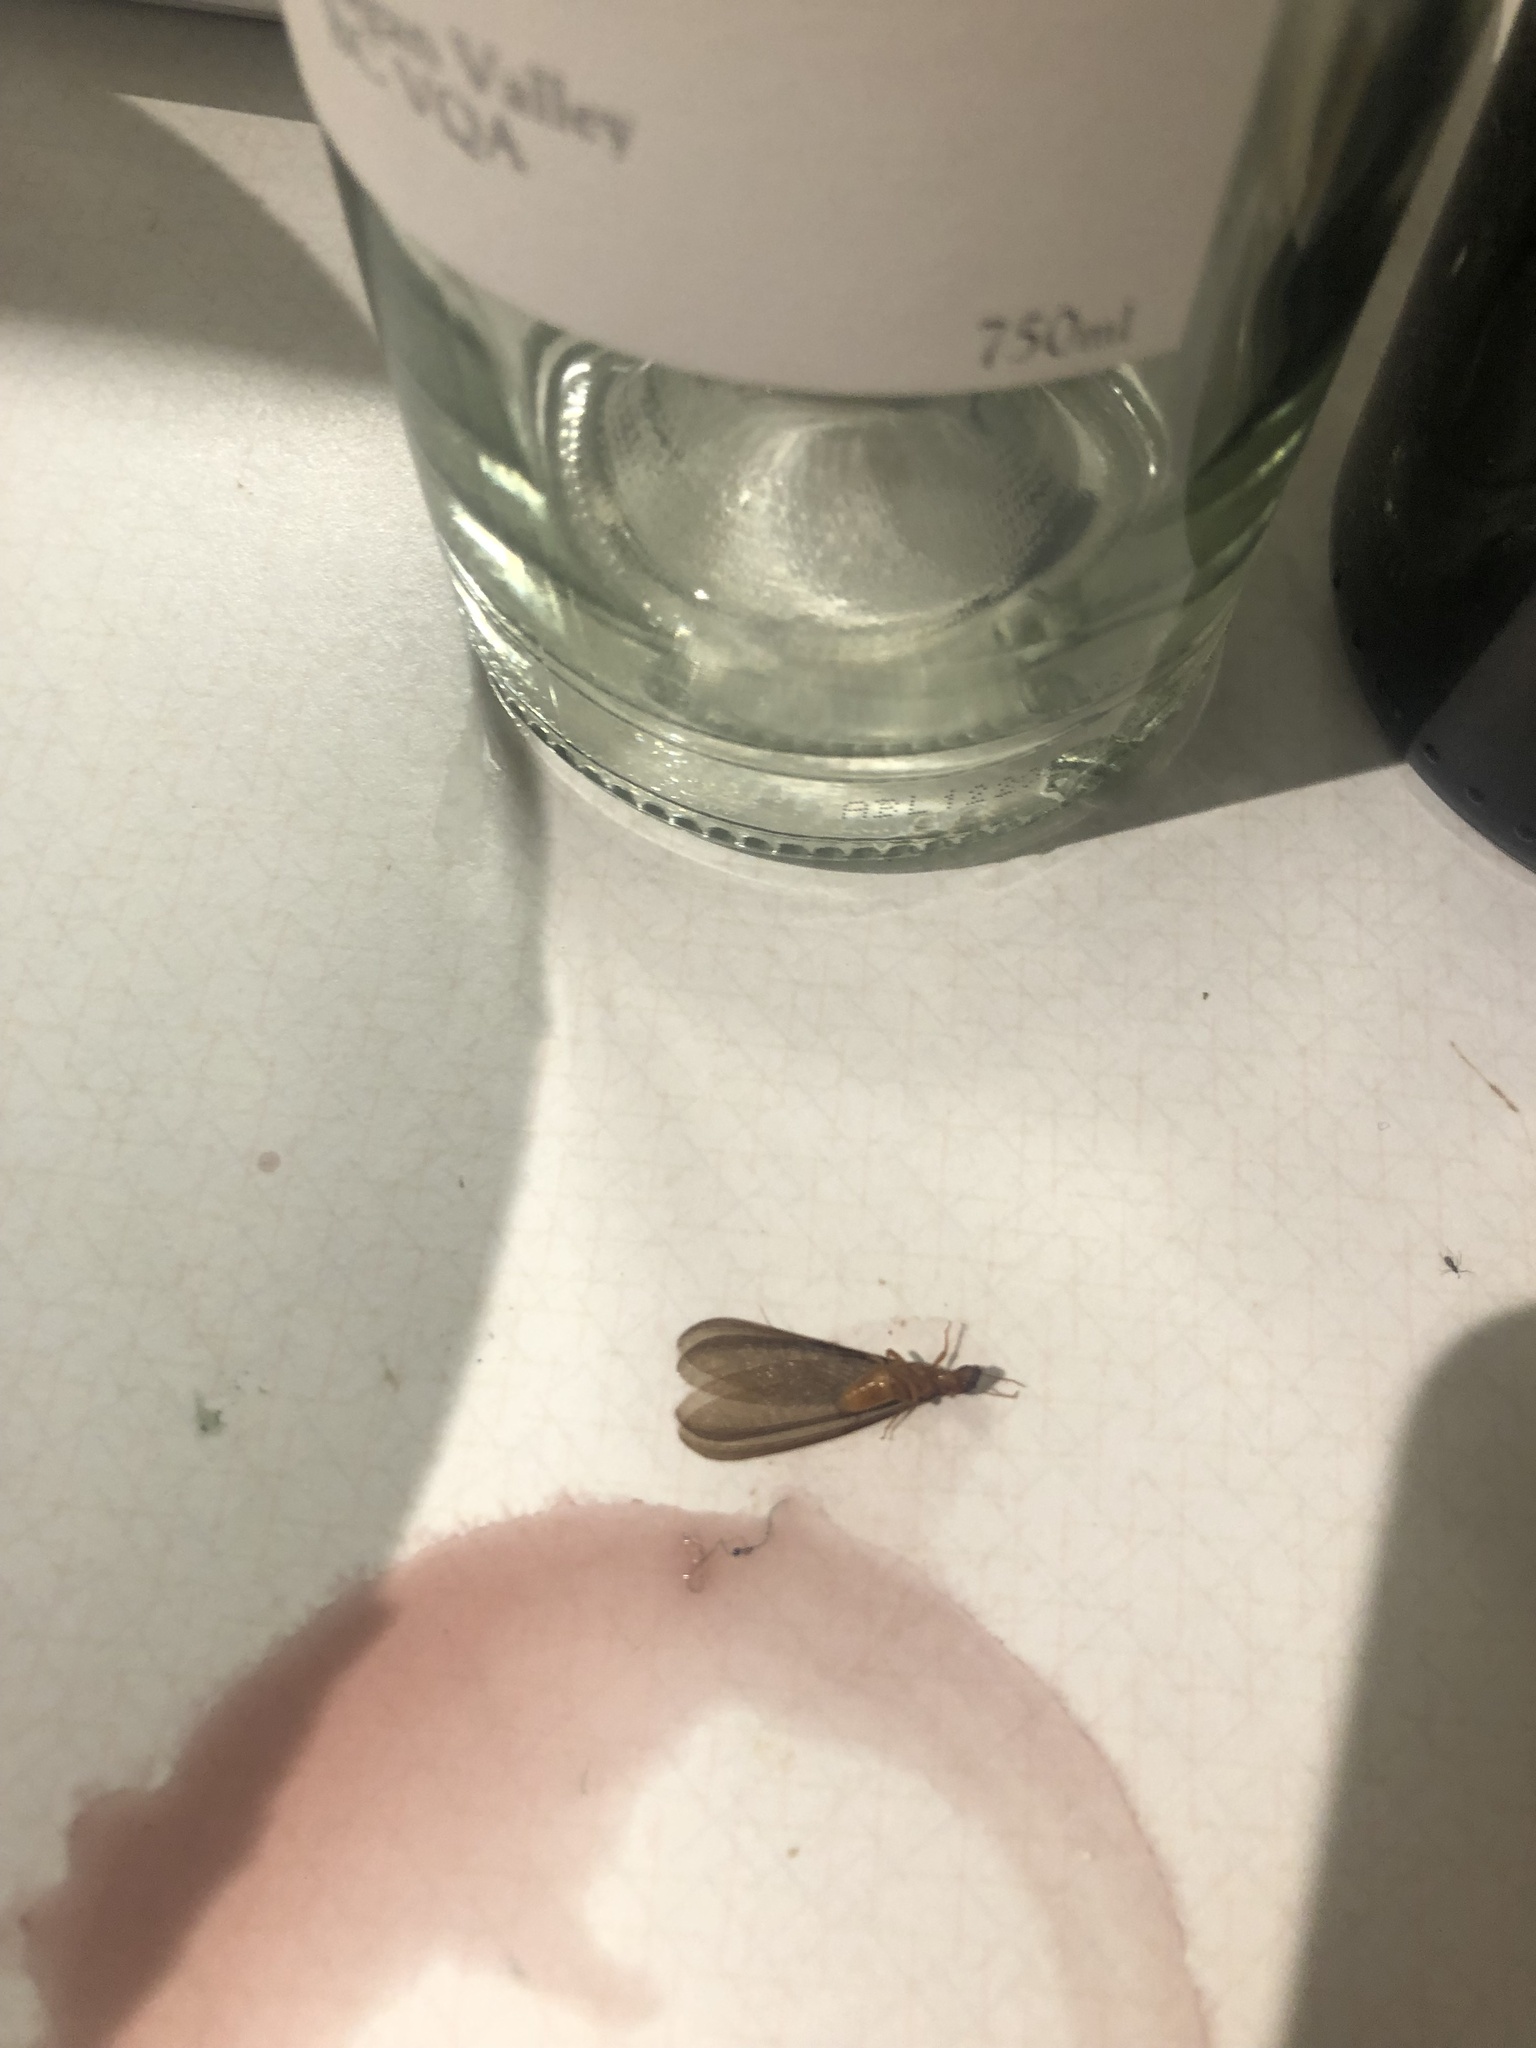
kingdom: Animalia
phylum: Arthropoda
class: Insecta
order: Blattodea
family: Archotermopsidae
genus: Zootermopsis
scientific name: Zootermopsis angusticollis
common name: Rottenwood termite
